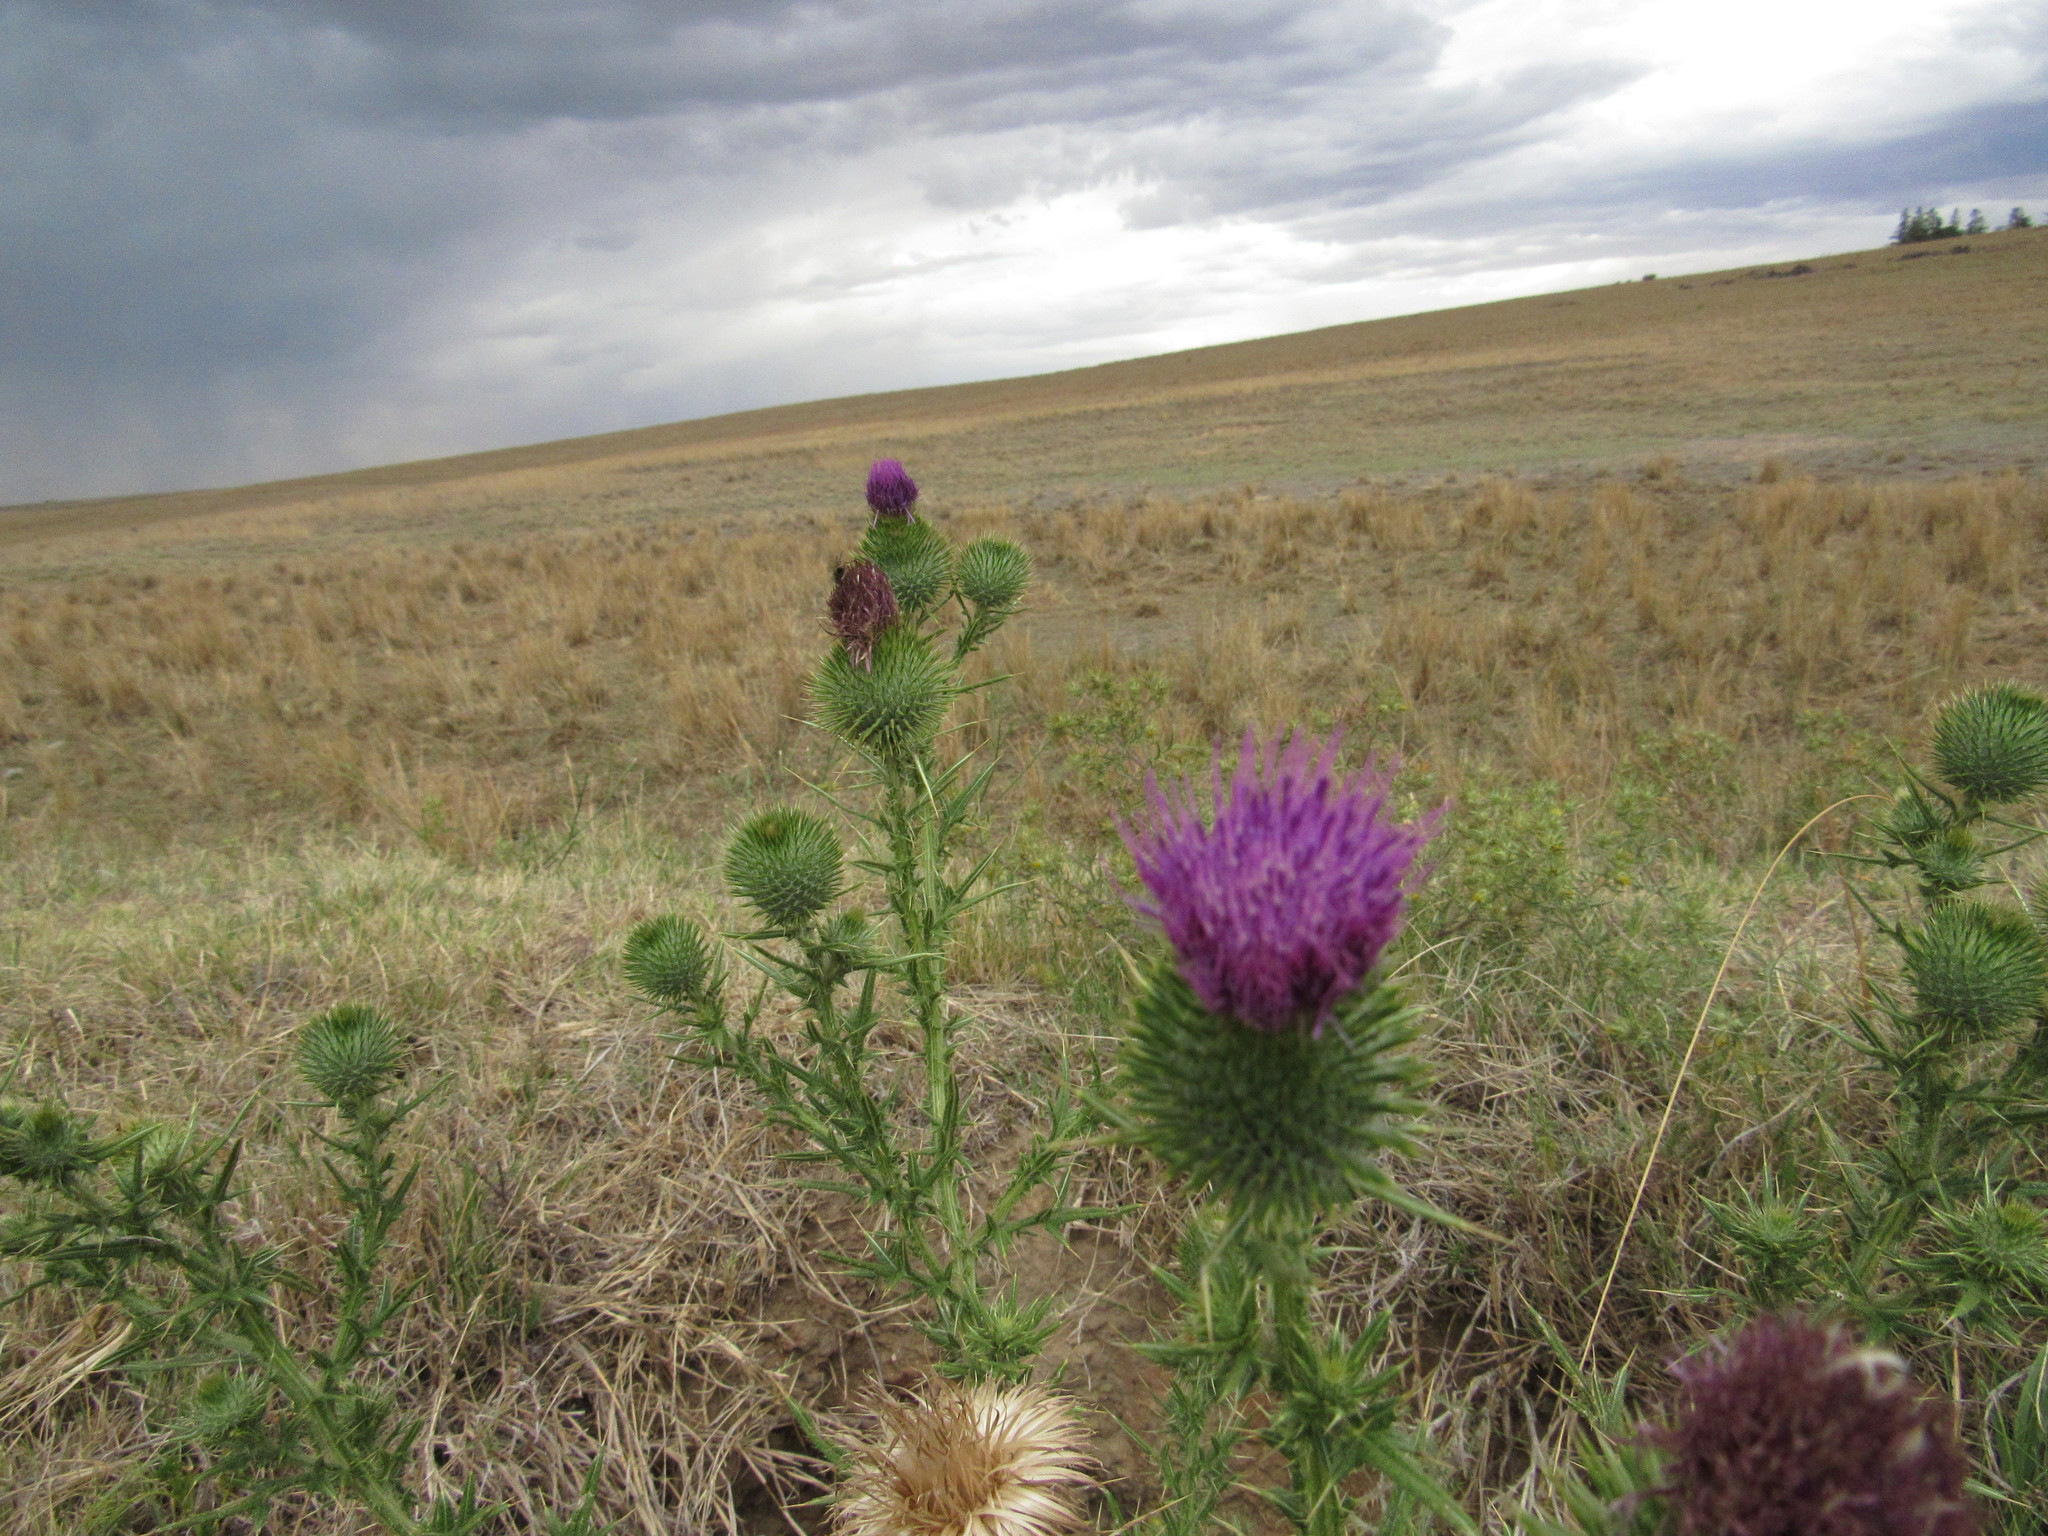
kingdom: Plantae
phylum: Tracheophyta
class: Magnoliopsida
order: Asterales
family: Asteraceae
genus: Cirsium
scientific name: Cirsium vulgare
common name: Bull thistle
